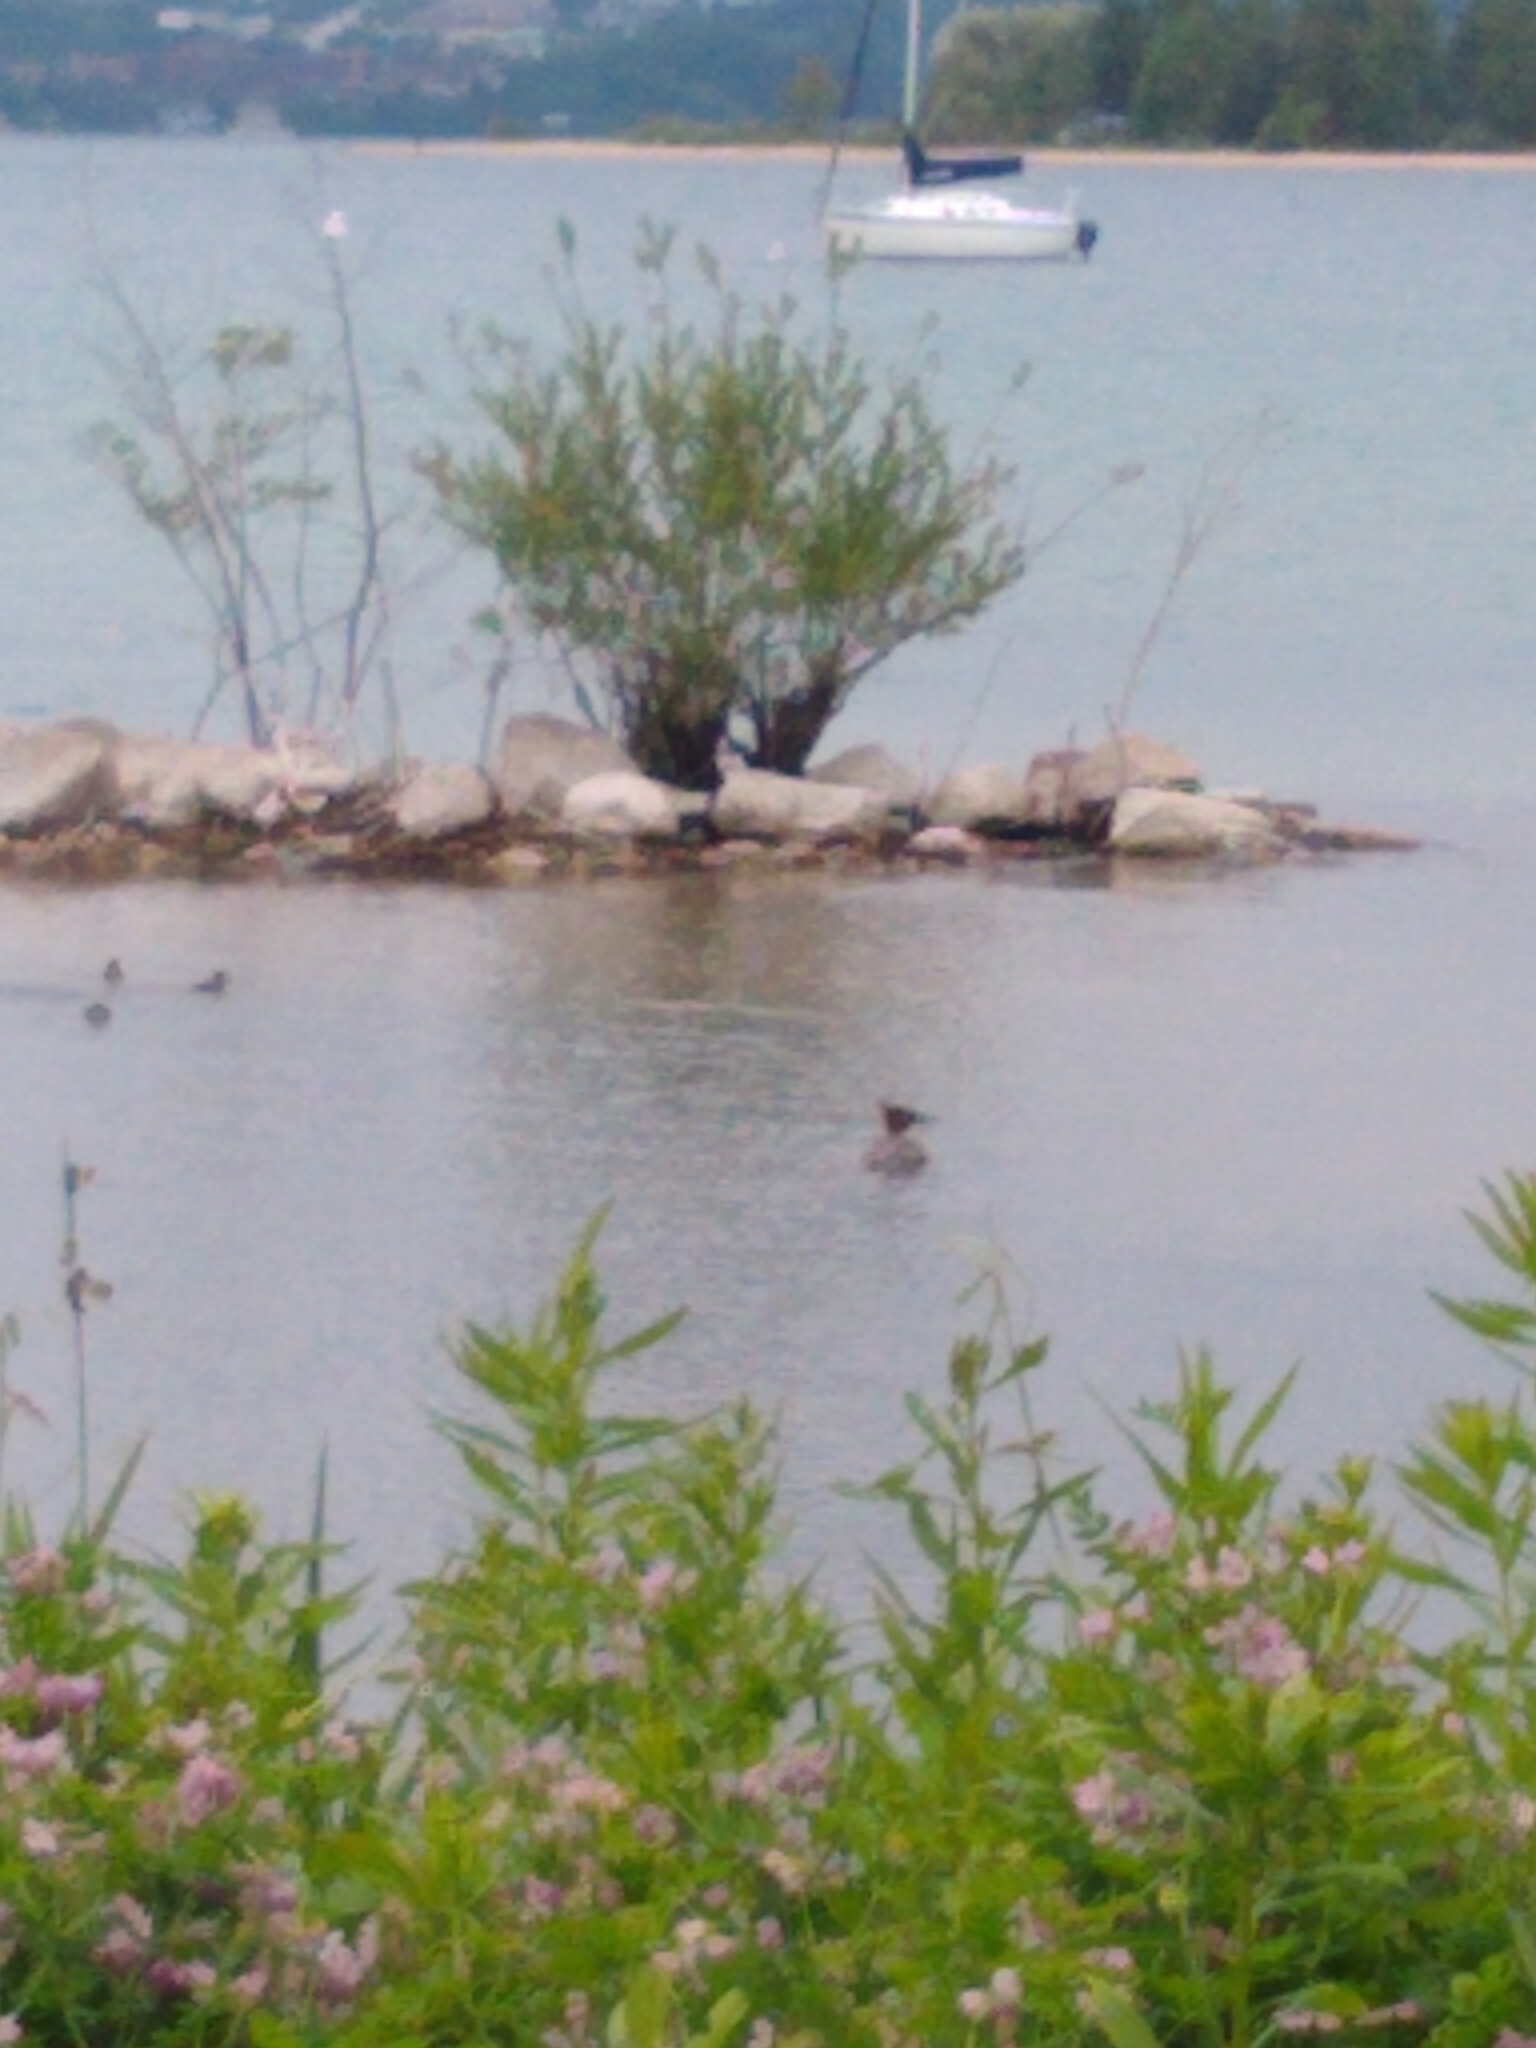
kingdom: Animalia
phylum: Chordata
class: Aves
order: Anseriformes
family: Anatidae
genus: Mergus
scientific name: Mergus merganser
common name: Common merganser
